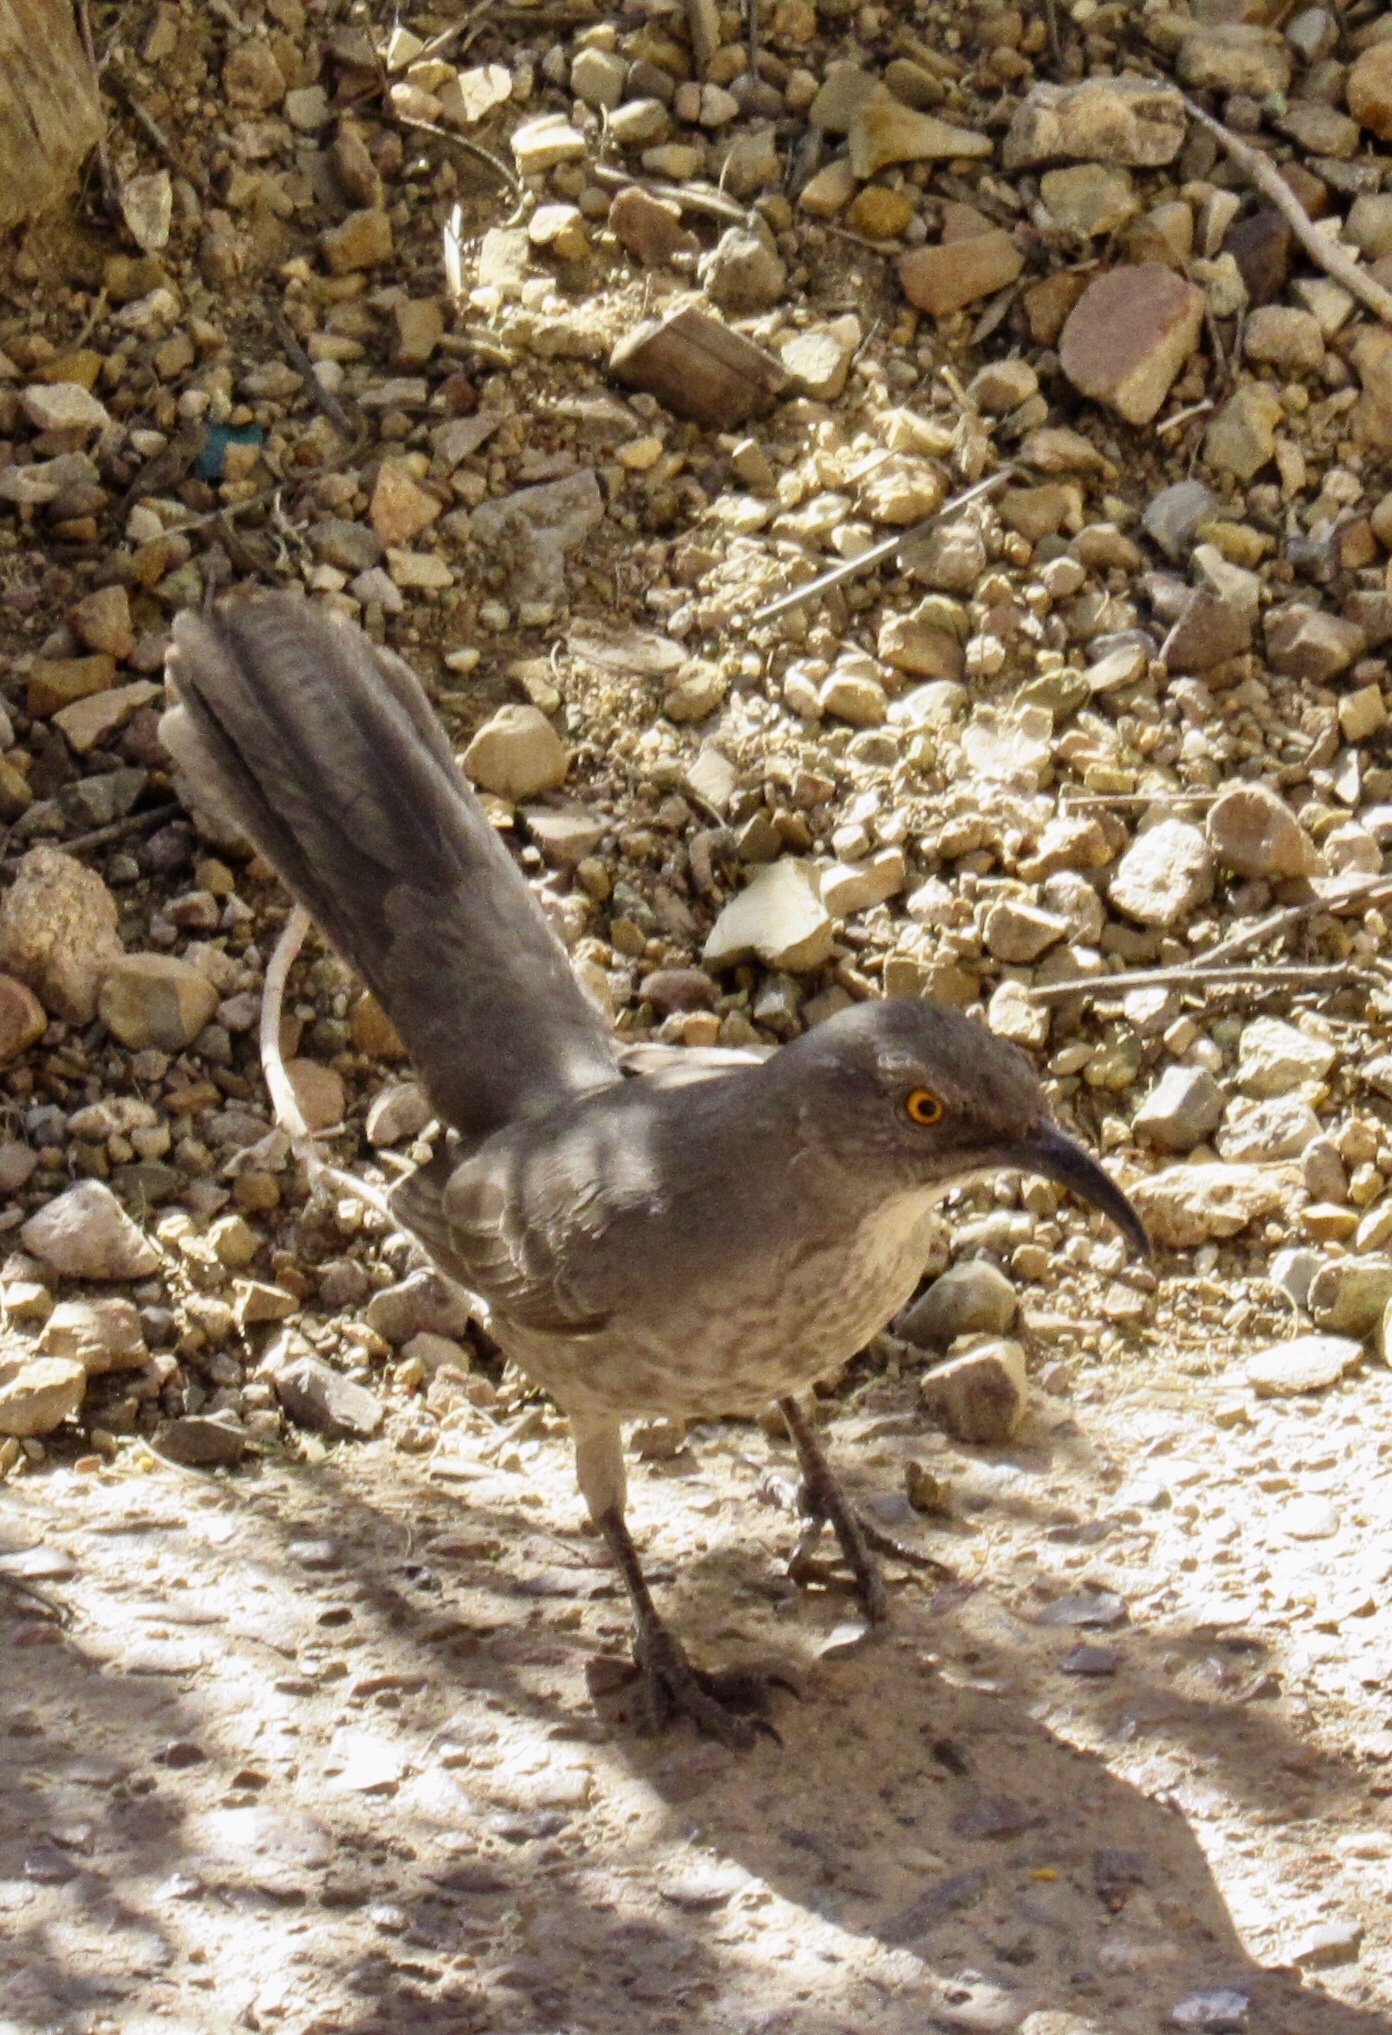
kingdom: Animalia
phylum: Chordata
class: Aves
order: Passeriformes
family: Mimidae
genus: Toxostoma
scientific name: Toxostoma curvirostre
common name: Curve-billed thrasher
